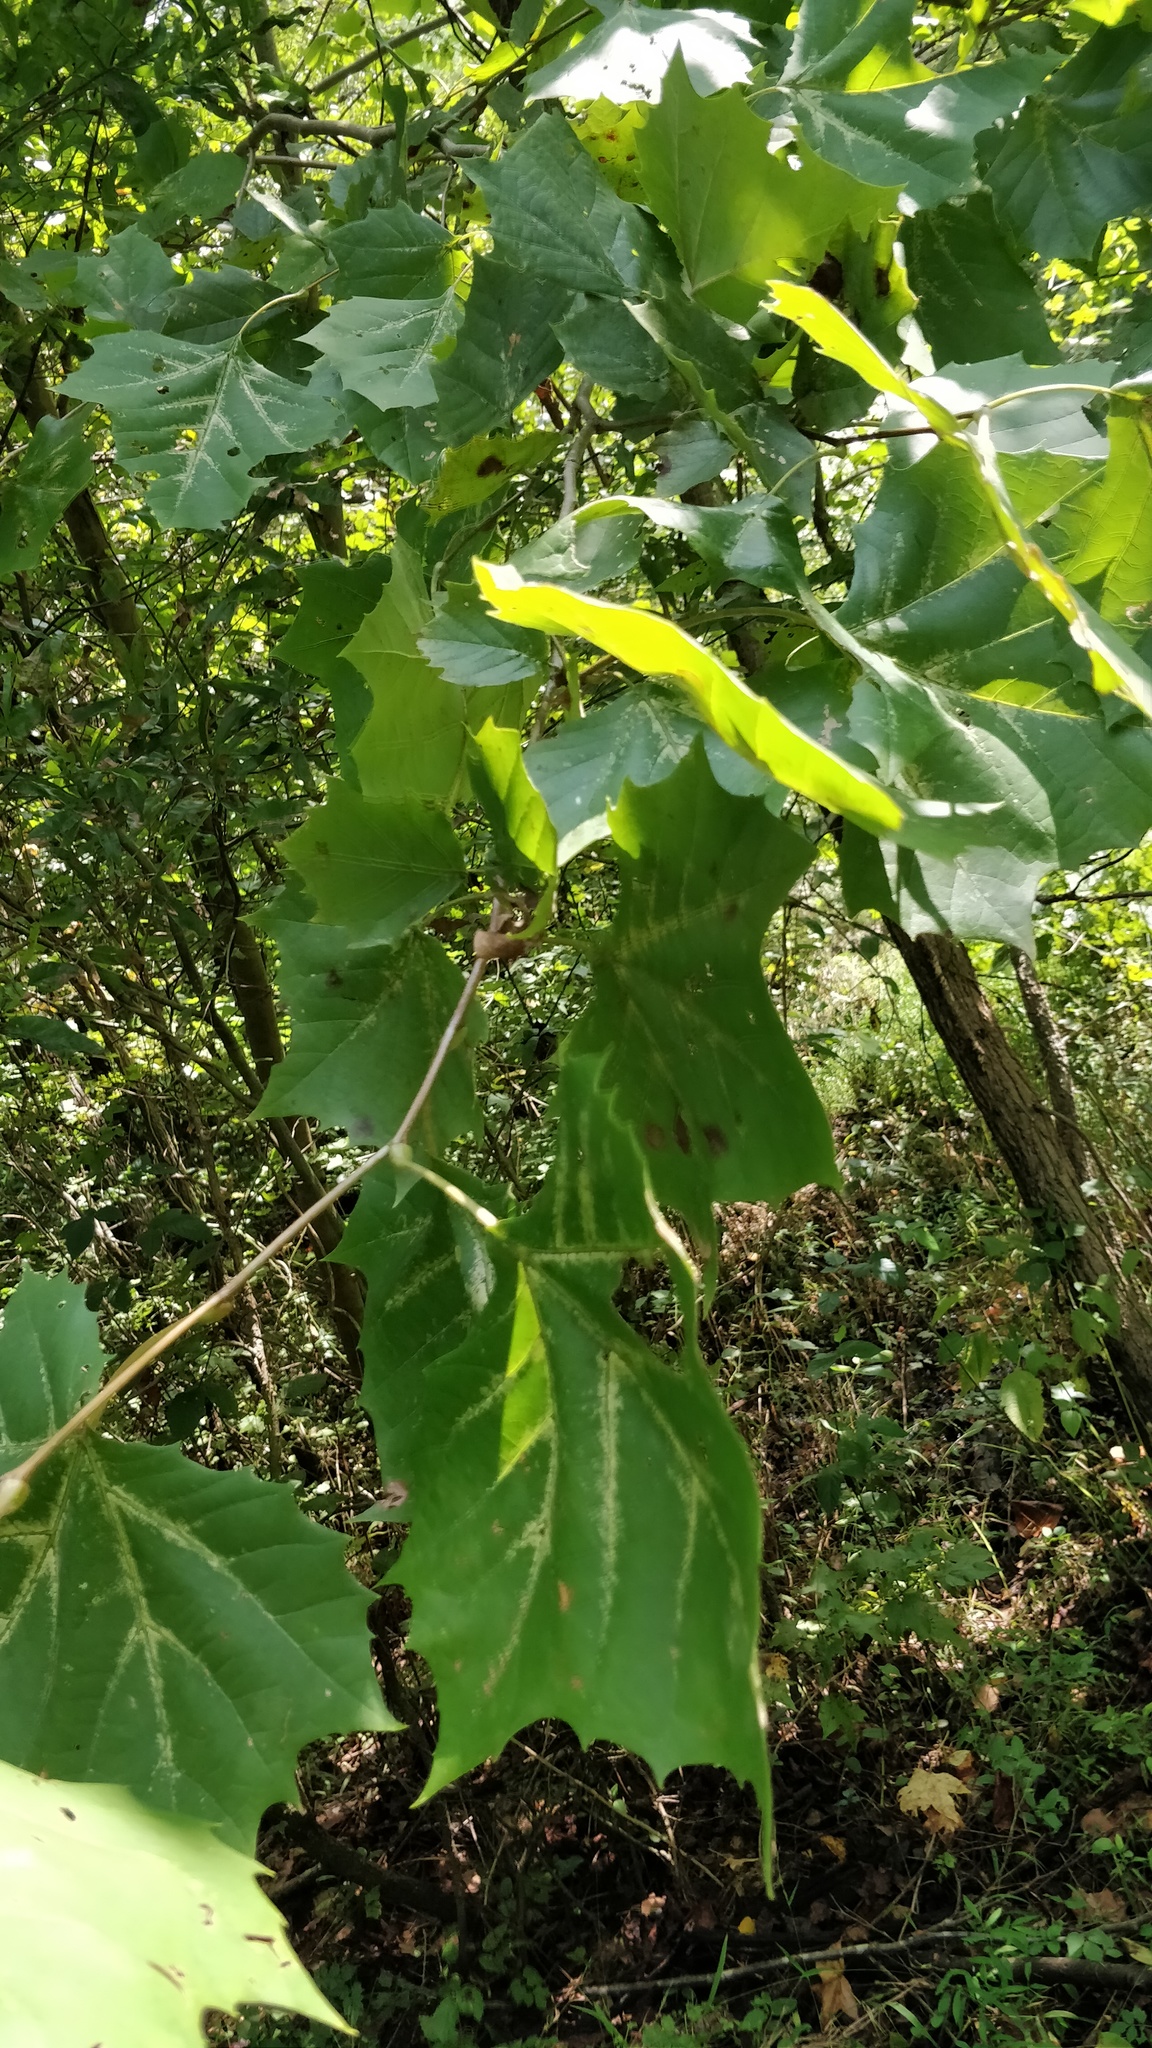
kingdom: Plantae
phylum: Tracheophyta
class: Magnoliopsida
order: Proteales
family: Platanaceae
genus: Platanus
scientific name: Platanus occidentalis
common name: American sycamore
